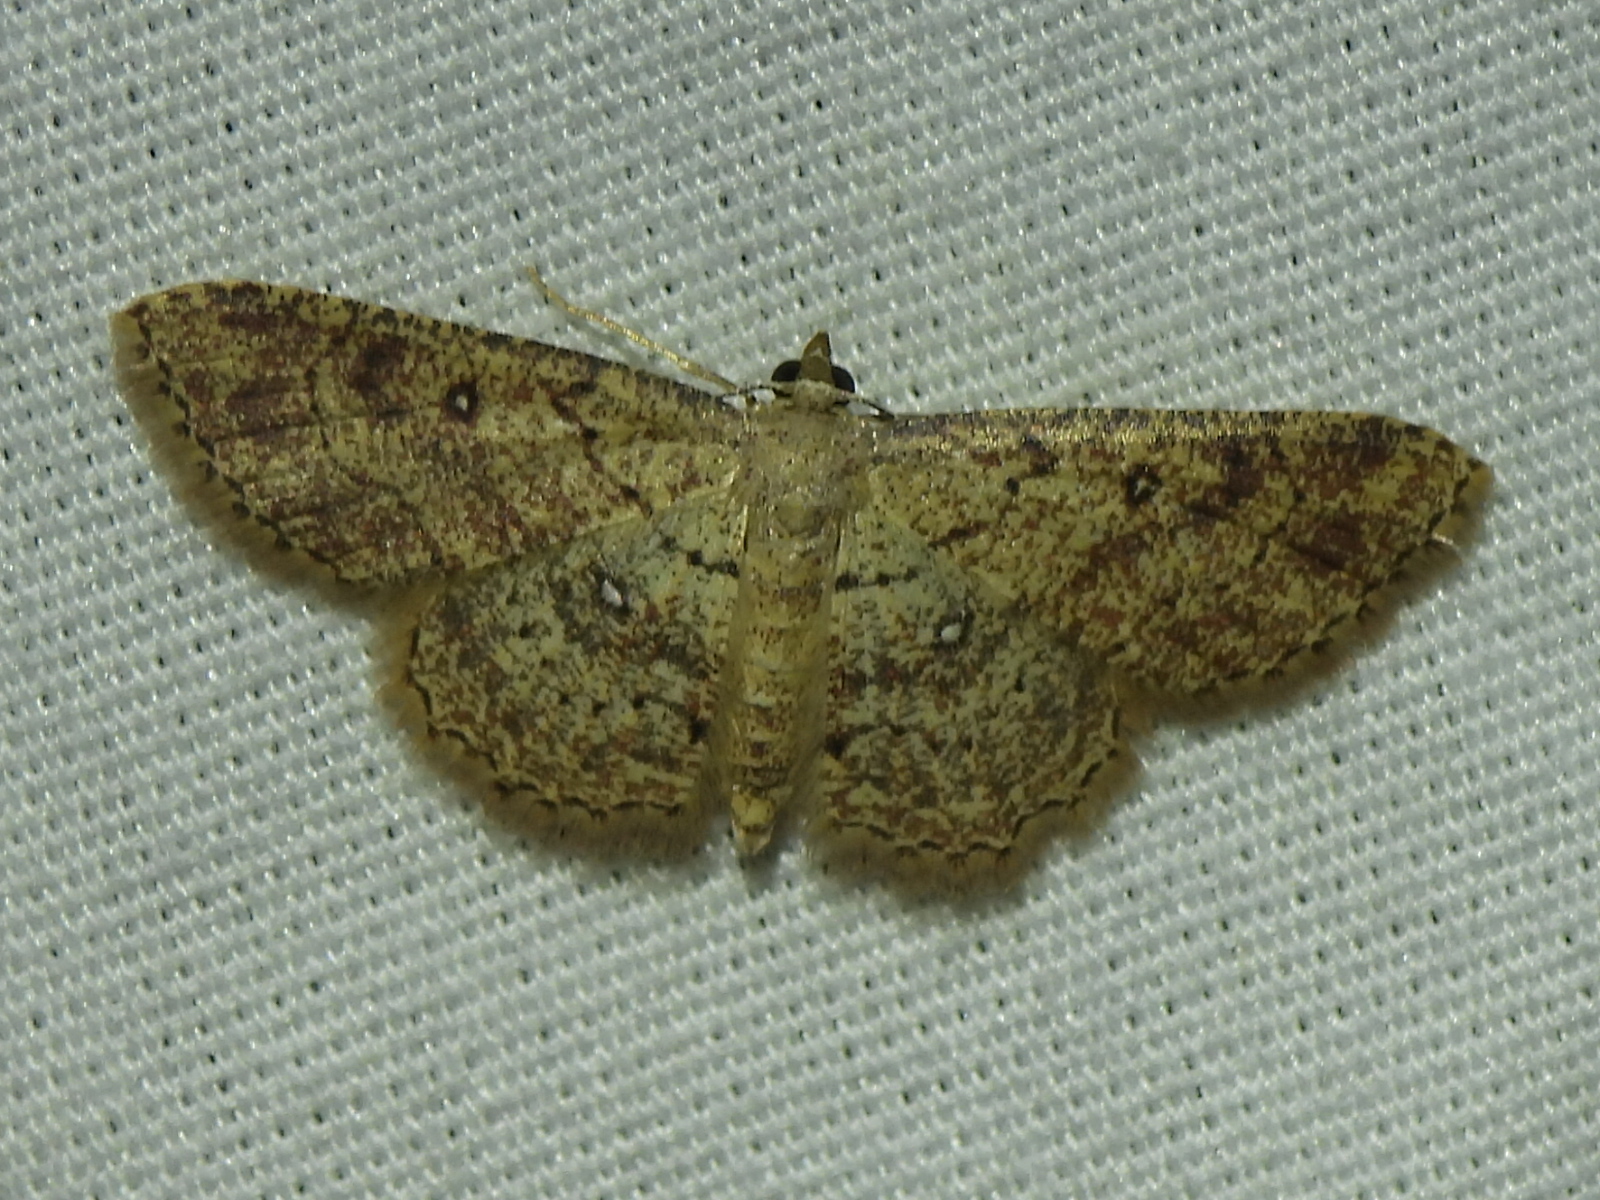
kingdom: Animalia
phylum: Arthropoda
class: Insecta
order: Lepidoptera
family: Geometridae
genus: Cyclophora
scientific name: Cyclophora nanaria
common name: Cankerworm
